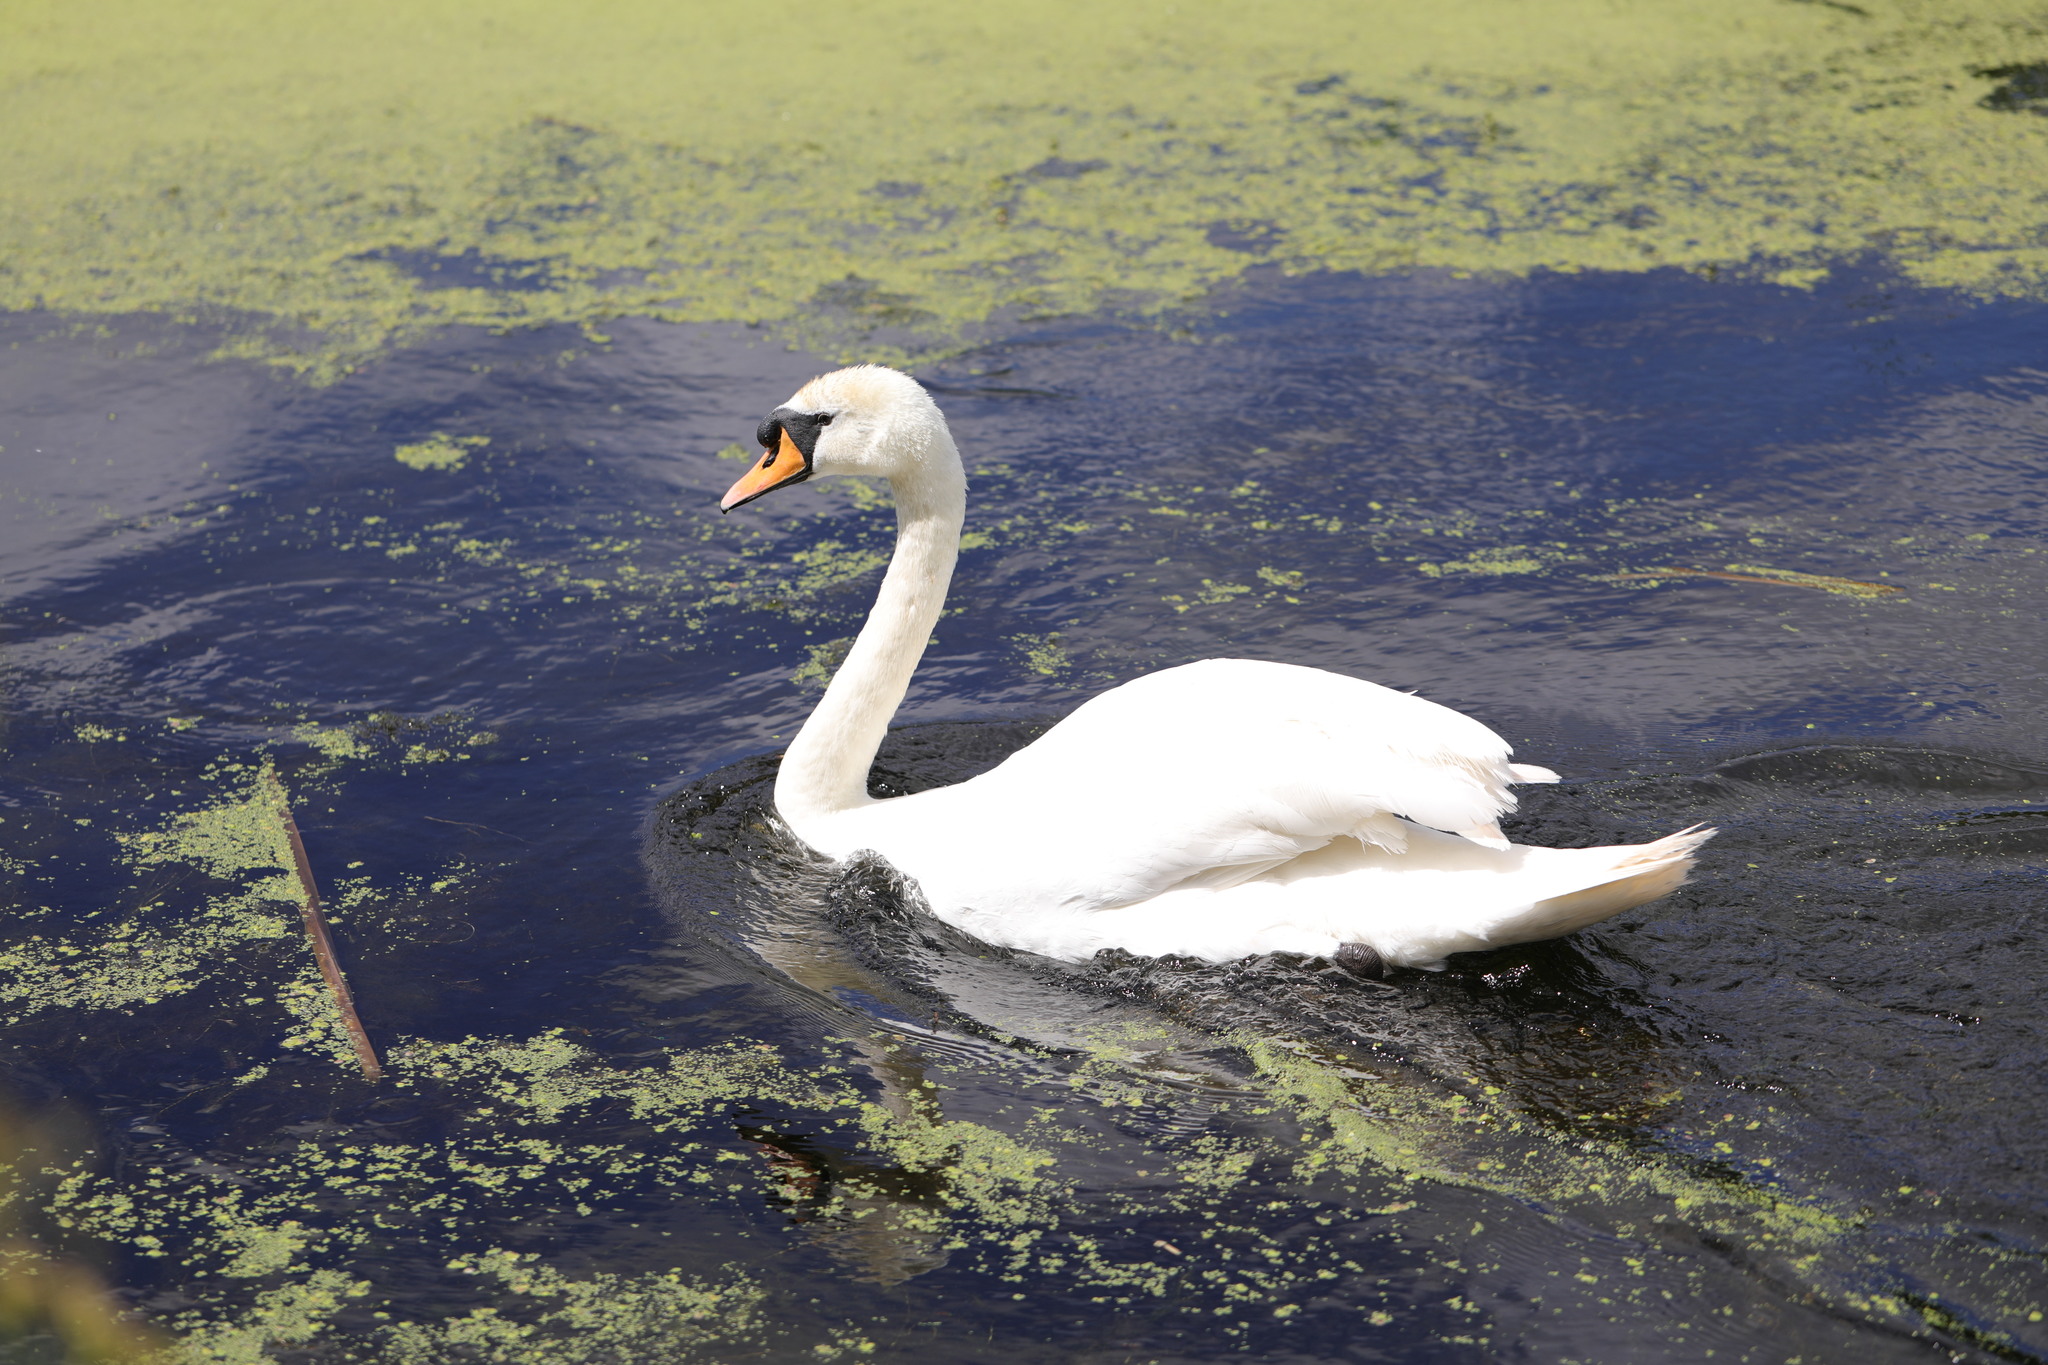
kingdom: Animalia
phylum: Chordata
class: Aves
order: Anseriformes
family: Anatidae
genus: Cygnus
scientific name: Cygnus olor
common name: Mute swan
